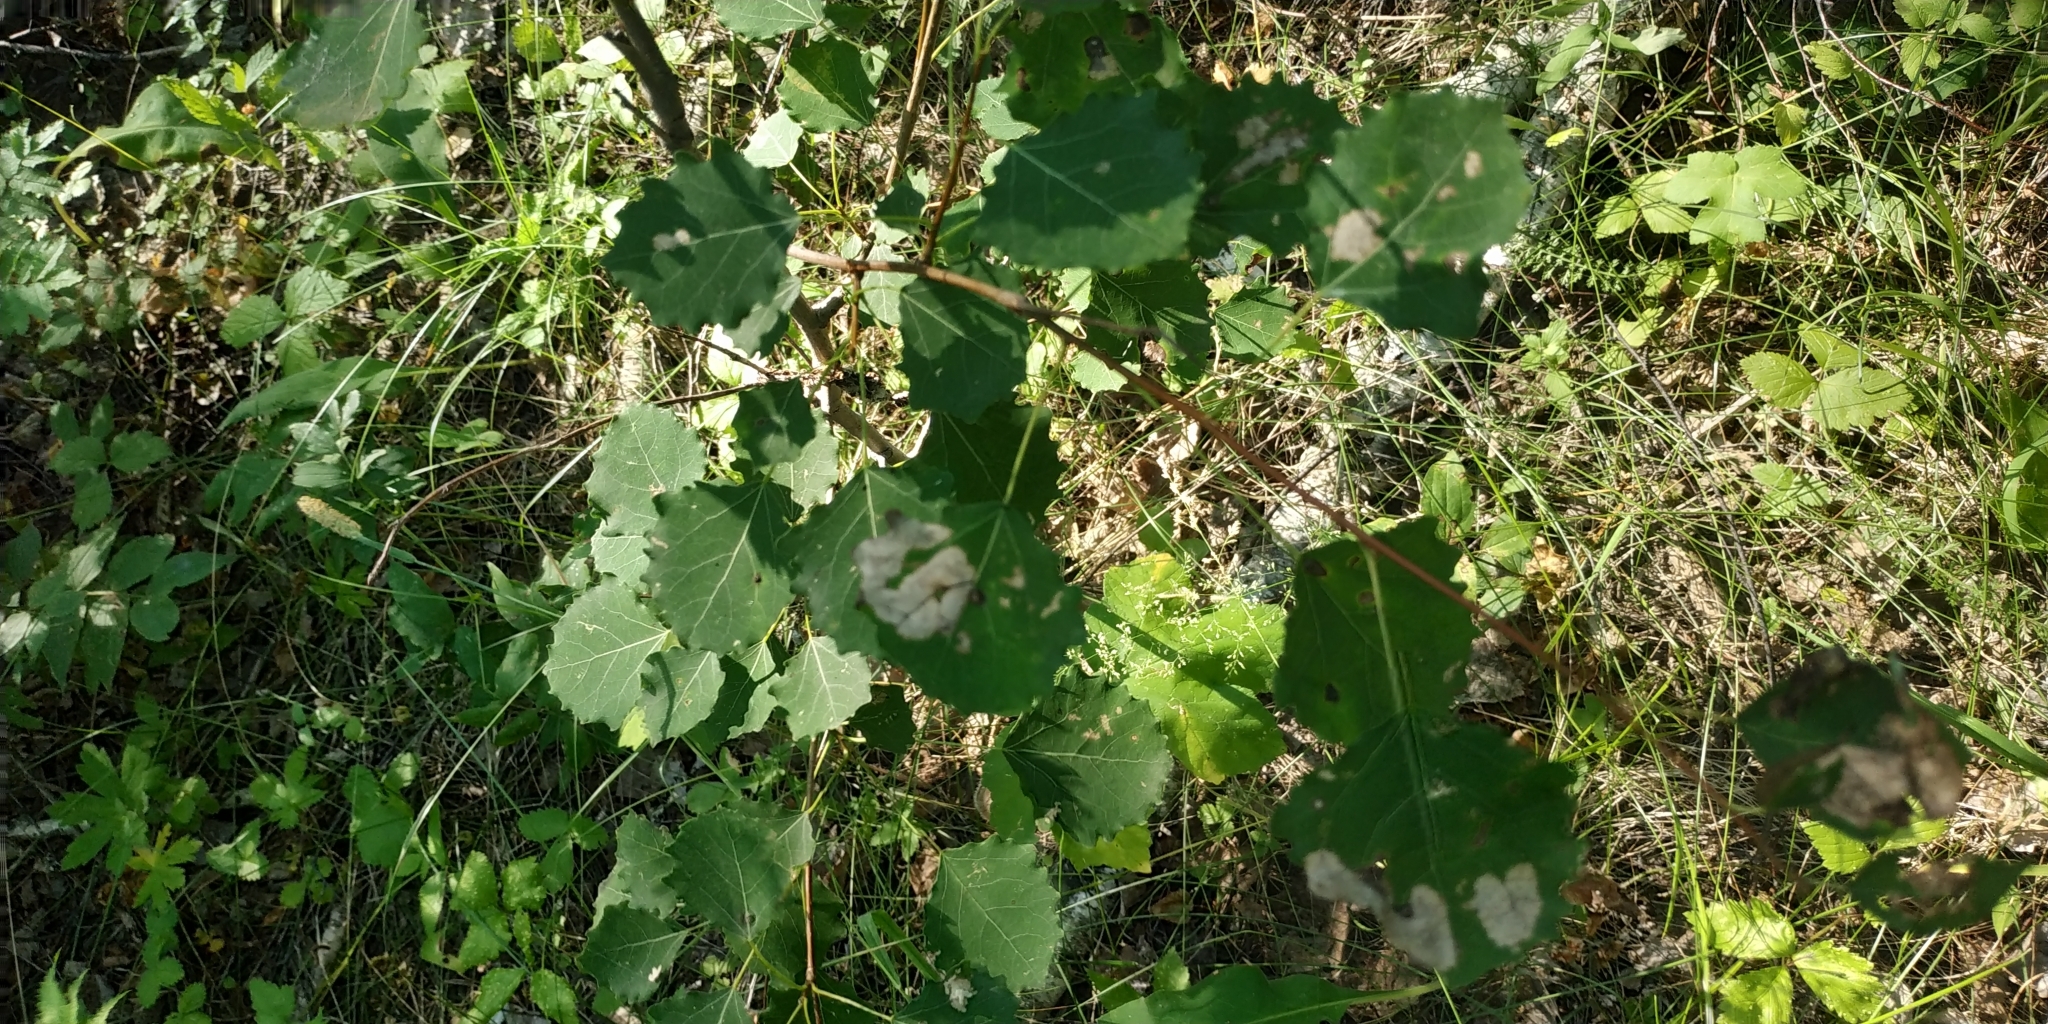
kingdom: Plantae
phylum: Tracheophyta
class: Magnoliopsida
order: Malpighiales
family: Salicaceae
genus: Populus
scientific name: Populus tremula
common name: European aspen
